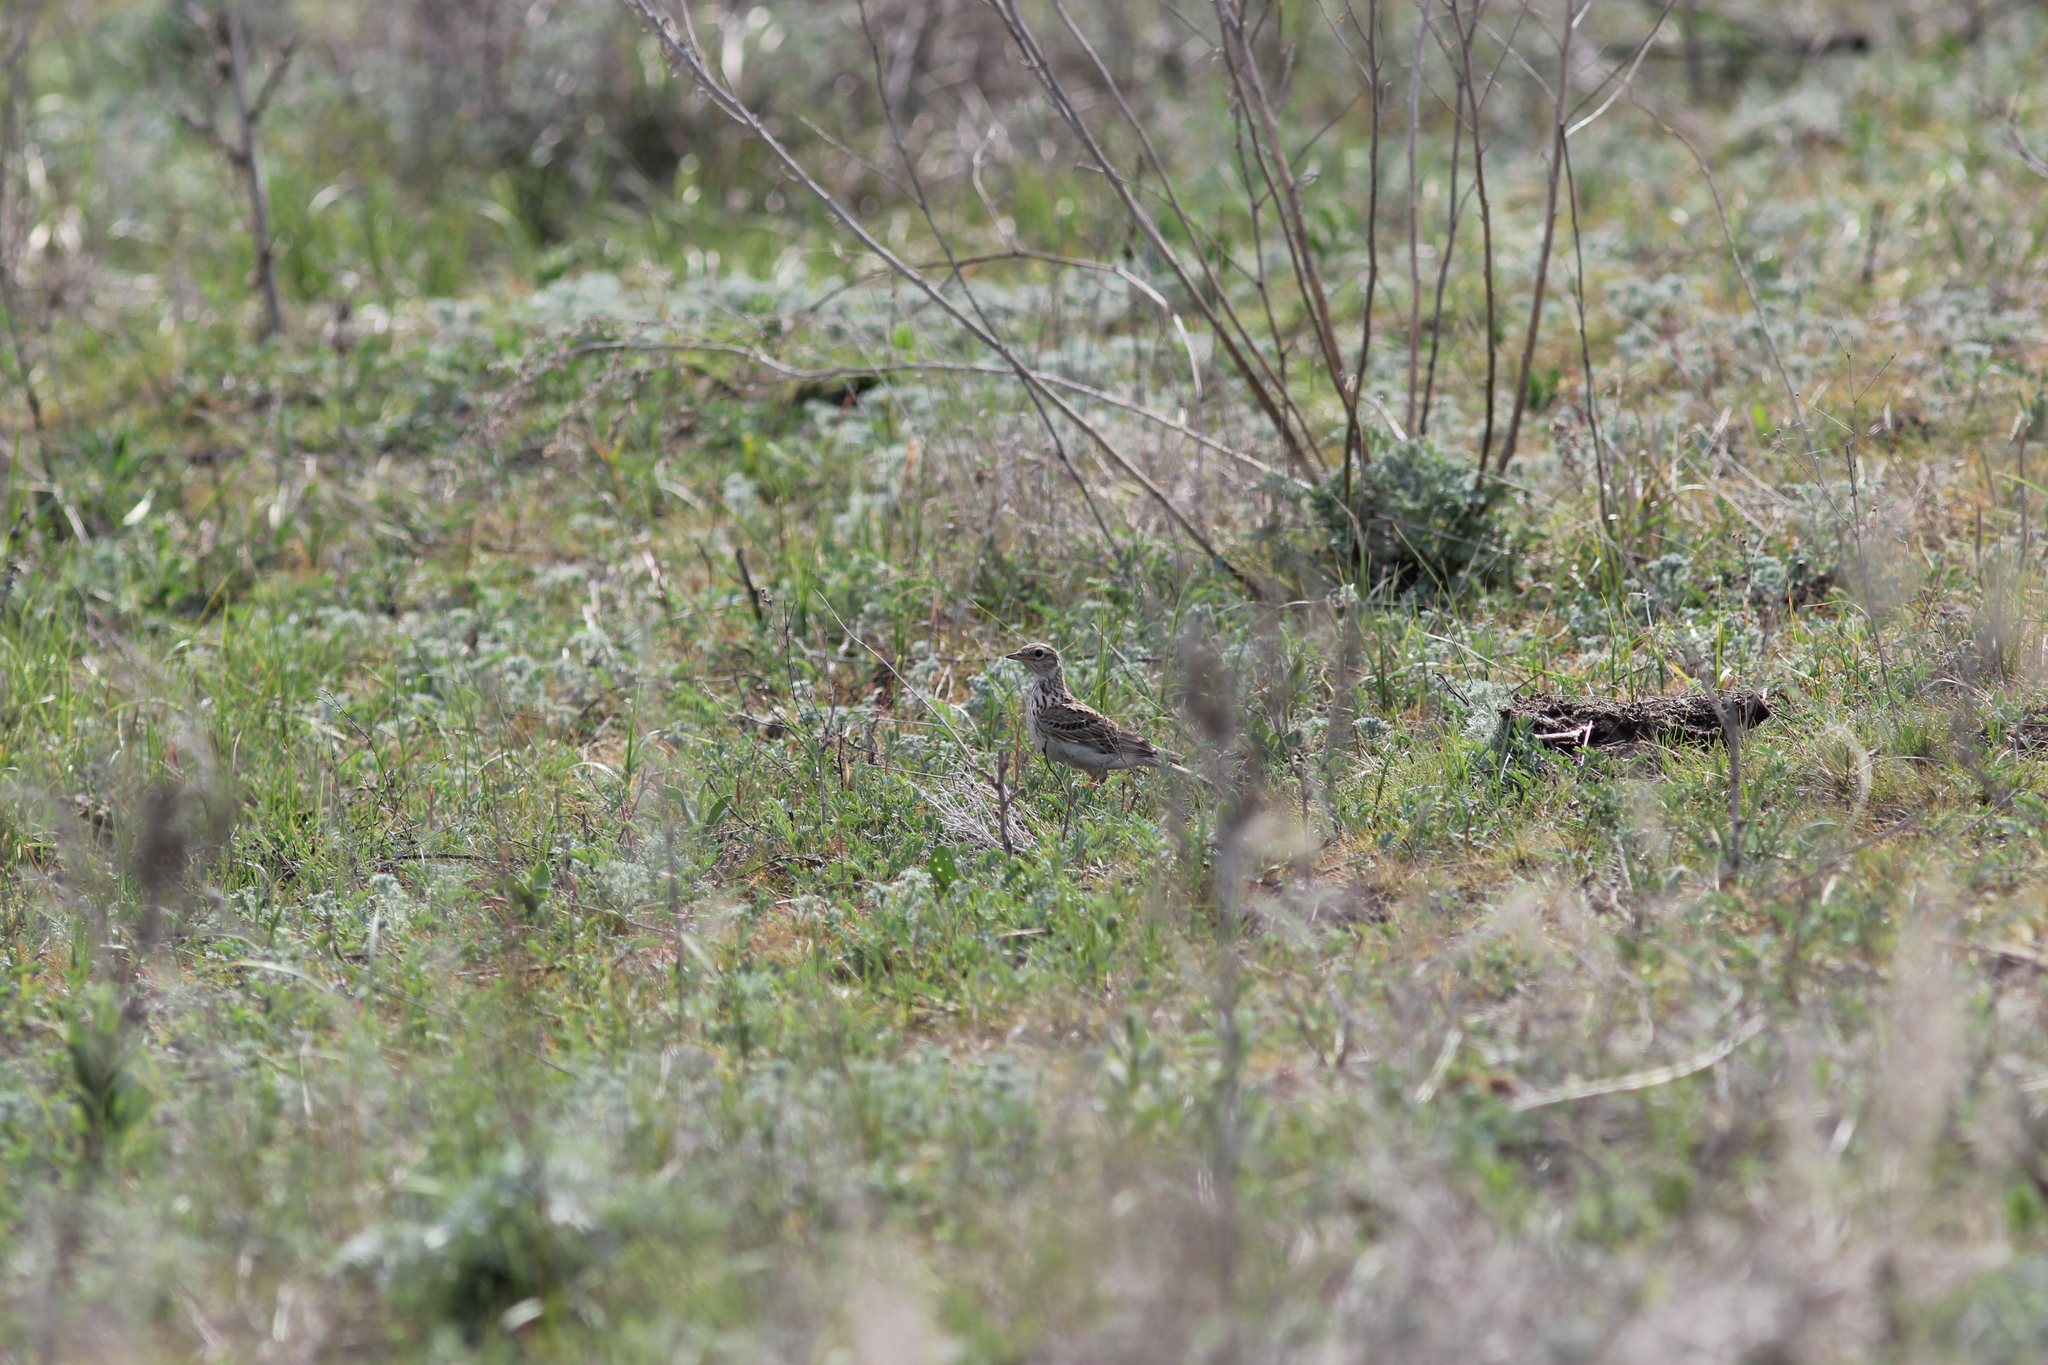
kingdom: Animalia
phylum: Chordata
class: Aves
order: Passeriformes
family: Alaudidae
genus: Alauda
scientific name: Alauda arvensis
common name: Eurasian skylark
